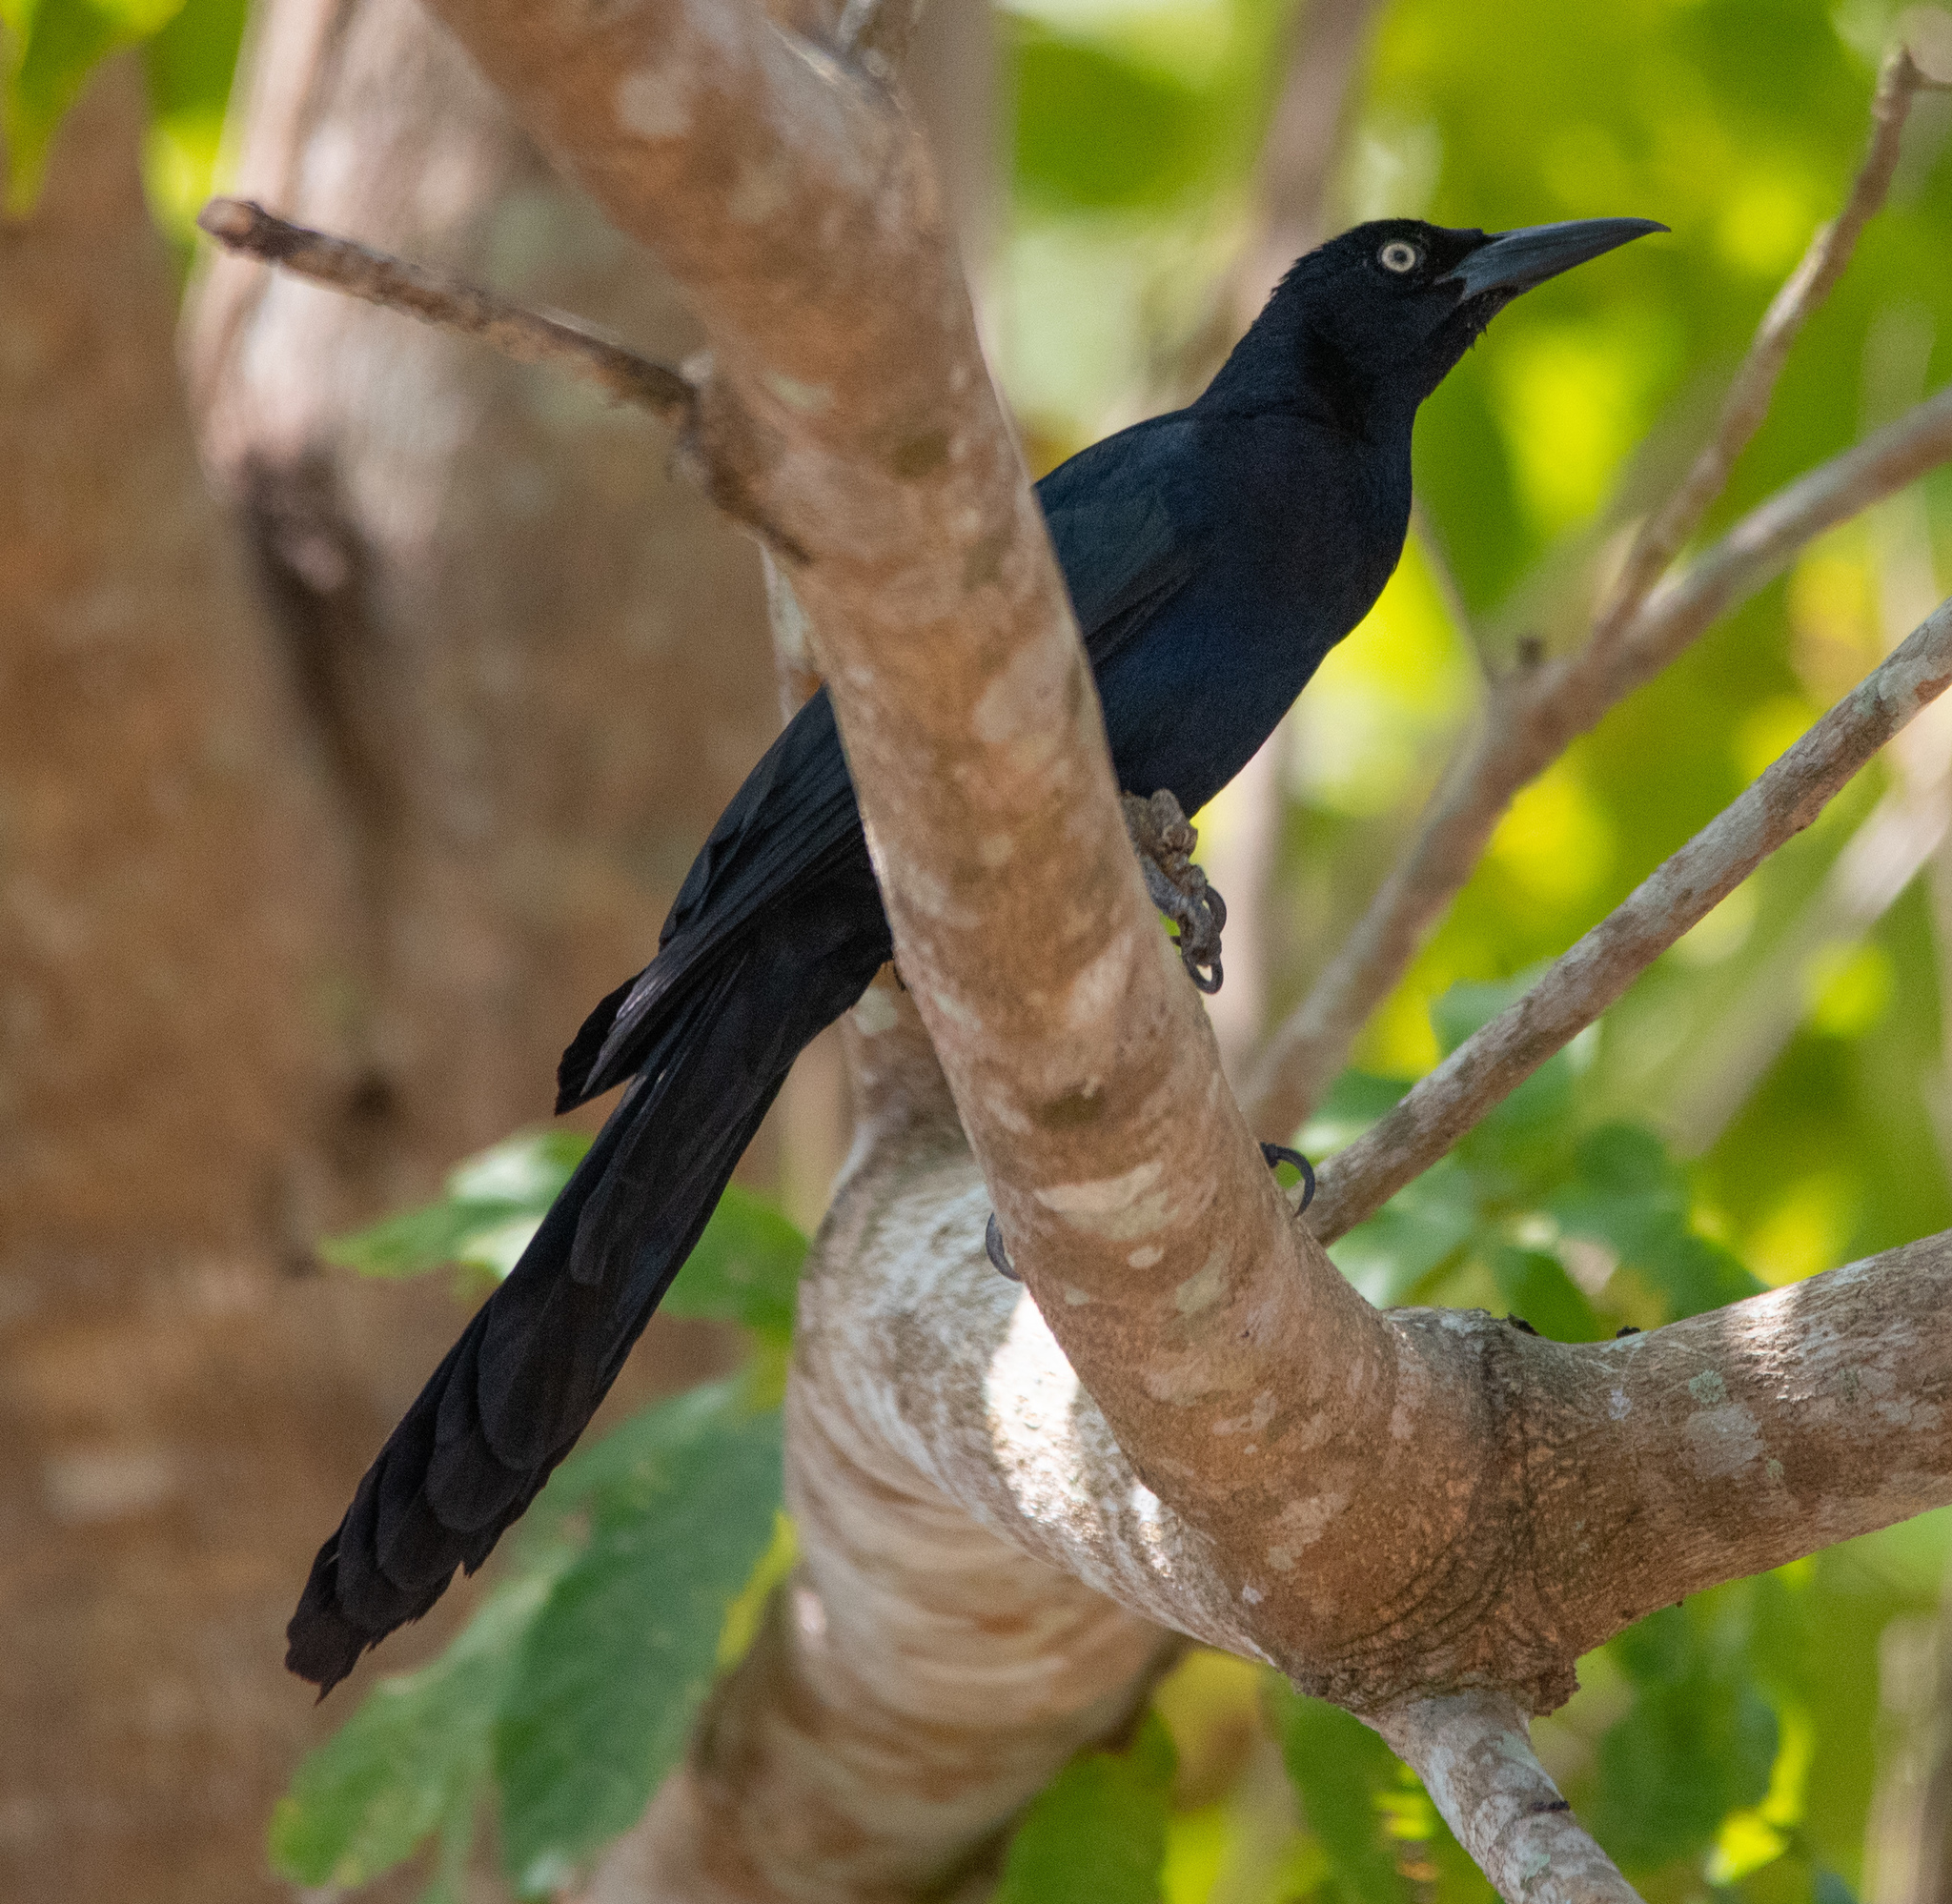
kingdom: Animalia
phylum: Chordata
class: Aves
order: Passeriformes
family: Icteridae
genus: Quiscalus
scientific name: Quiscalus mexicanus
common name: Great-tailed grackle
